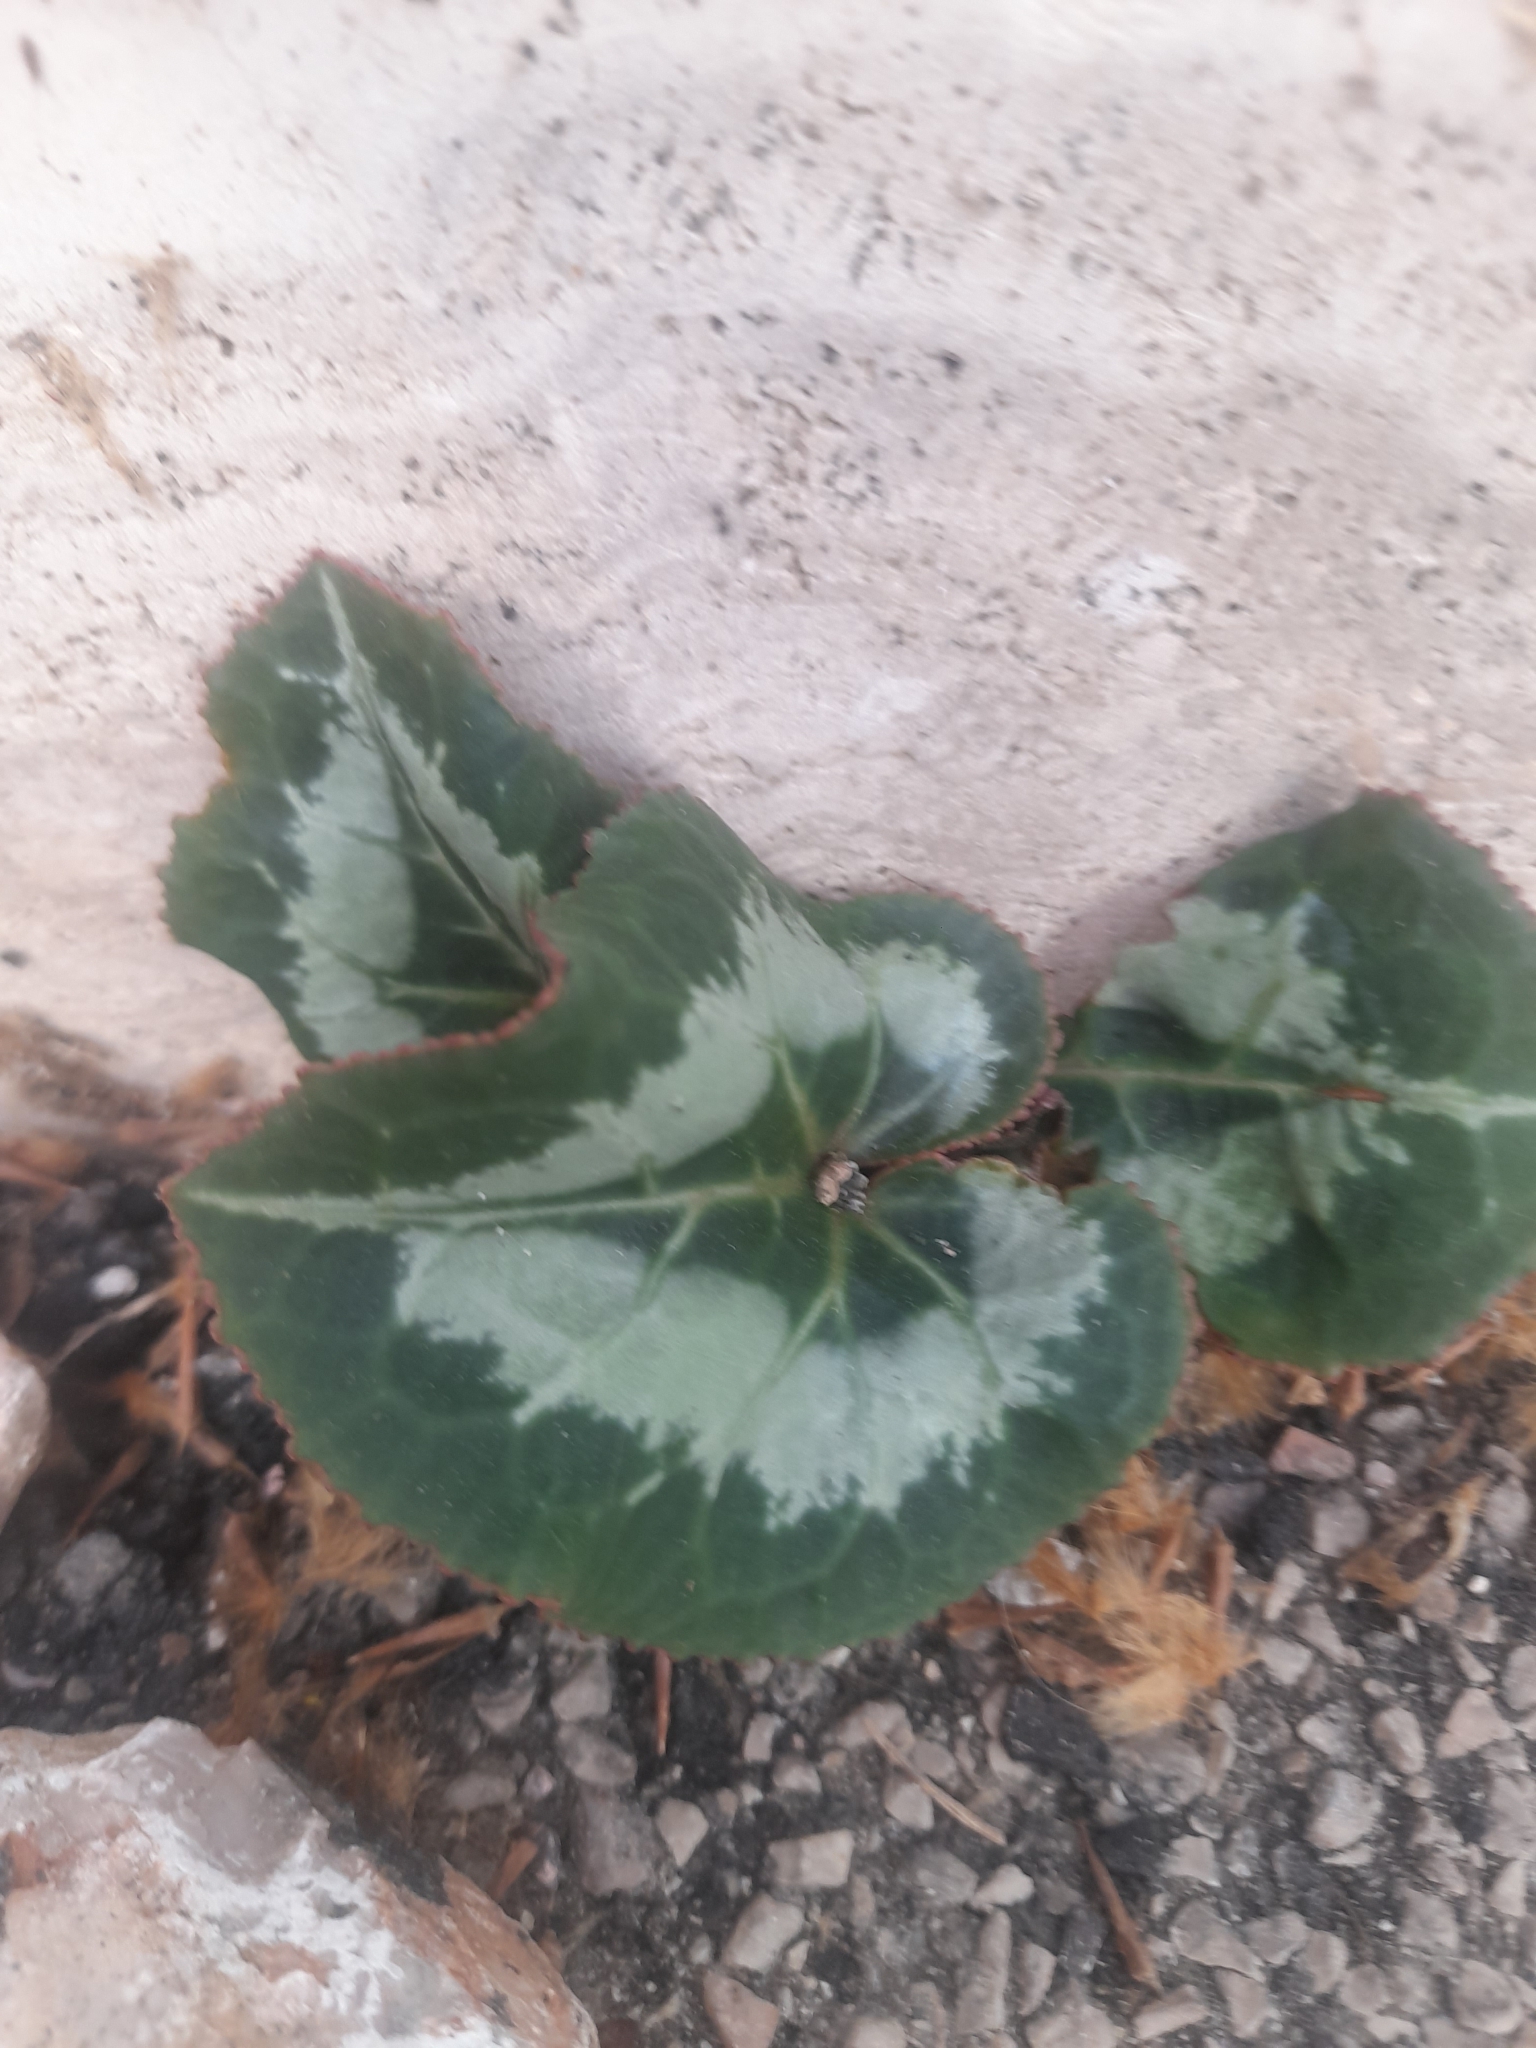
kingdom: Plantae
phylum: Tracheophyta
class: Magnoliopsida
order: Ericales
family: Primulaceae
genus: Cyclamen
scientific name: Cyclamen persicum
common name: Florist's cyclamen
